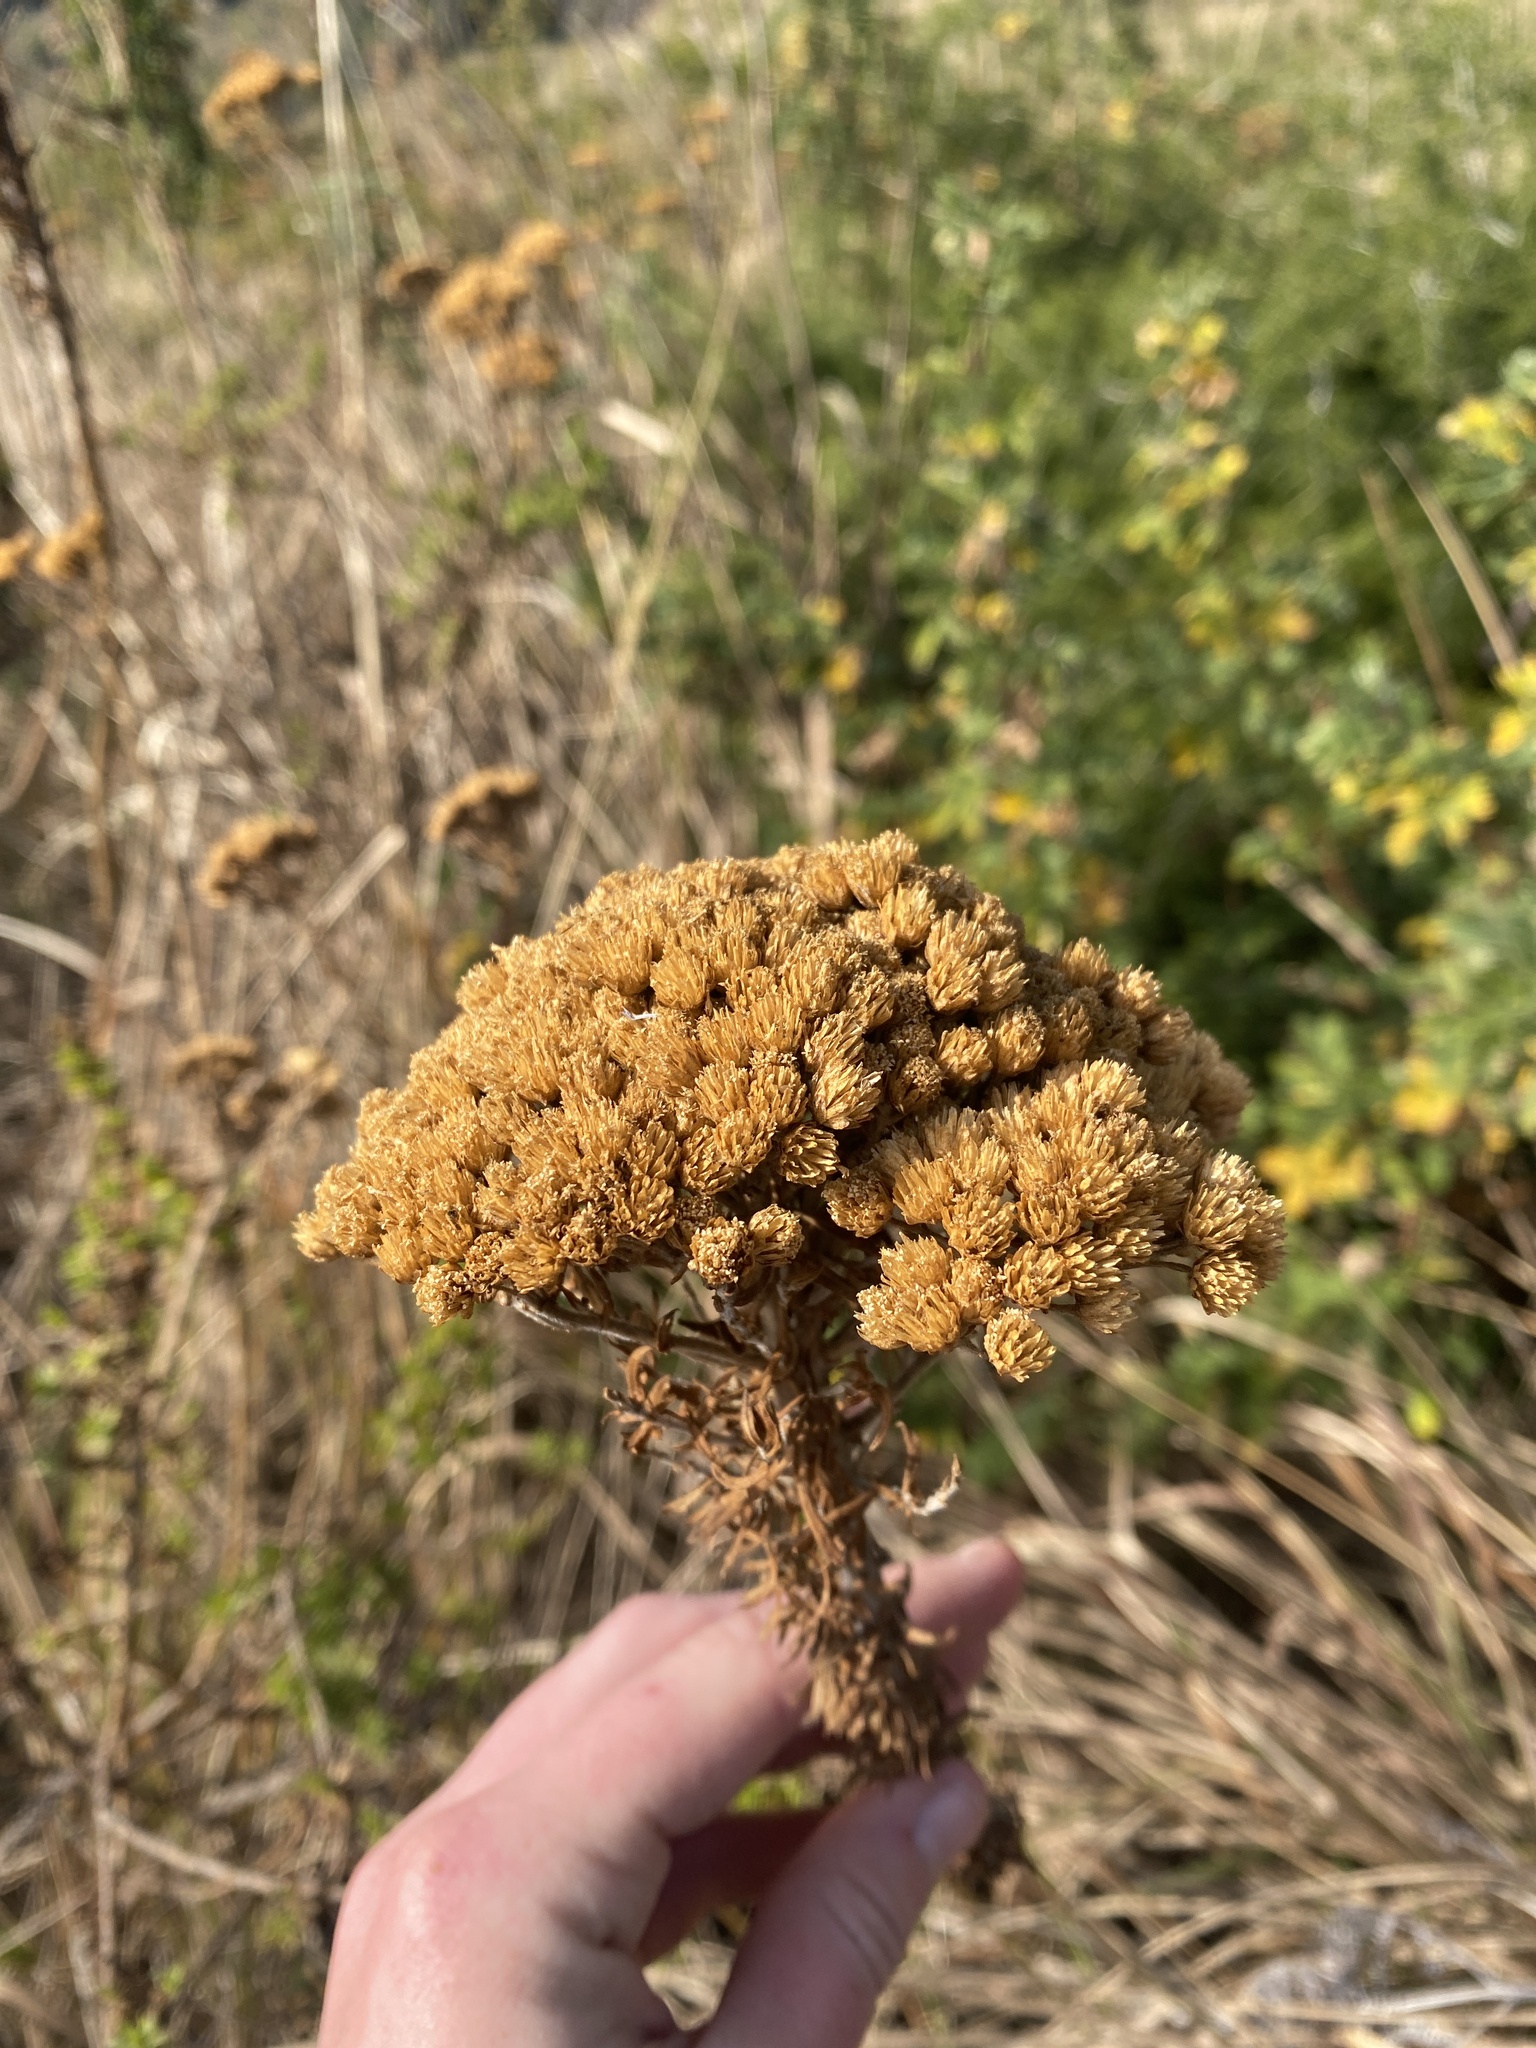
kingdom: Plantae
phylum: Tracheophyta
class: Magnoliopsida
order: Asterales
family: Asteraceae
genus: Inulanthera
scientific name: Inulanthera dregeana
